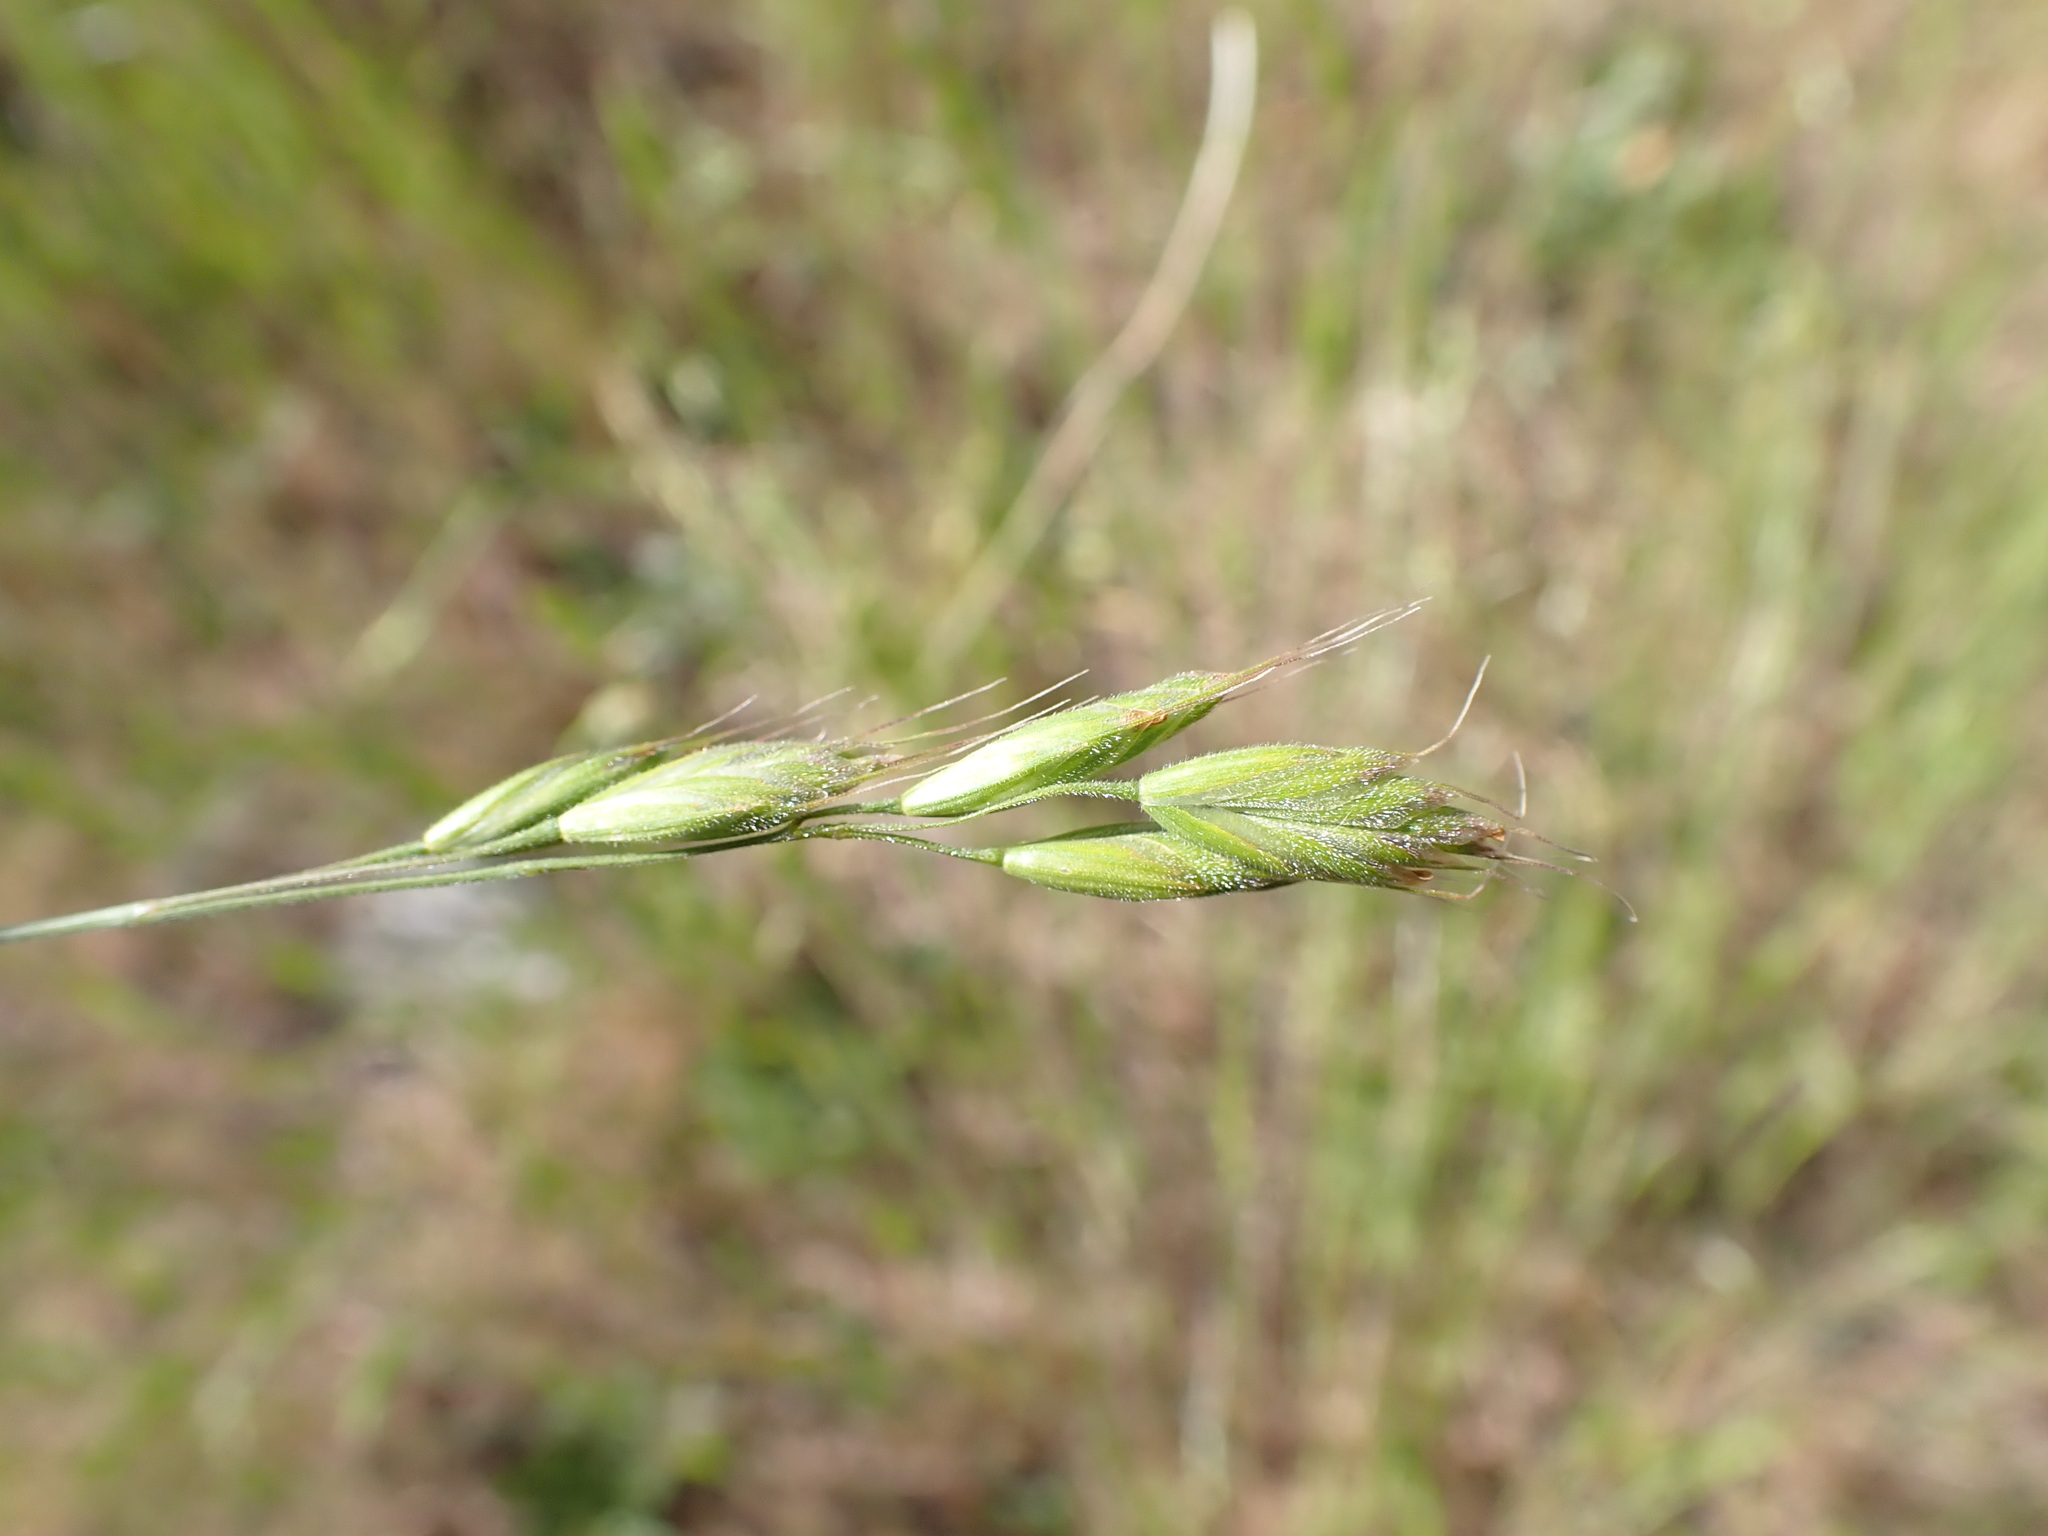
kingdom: Plantae
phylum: Tracheophyta
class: Liliopsida
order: Poales
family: Poaceae
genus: Bromus
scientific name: Bromus hordeaceus
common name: Soft brome
